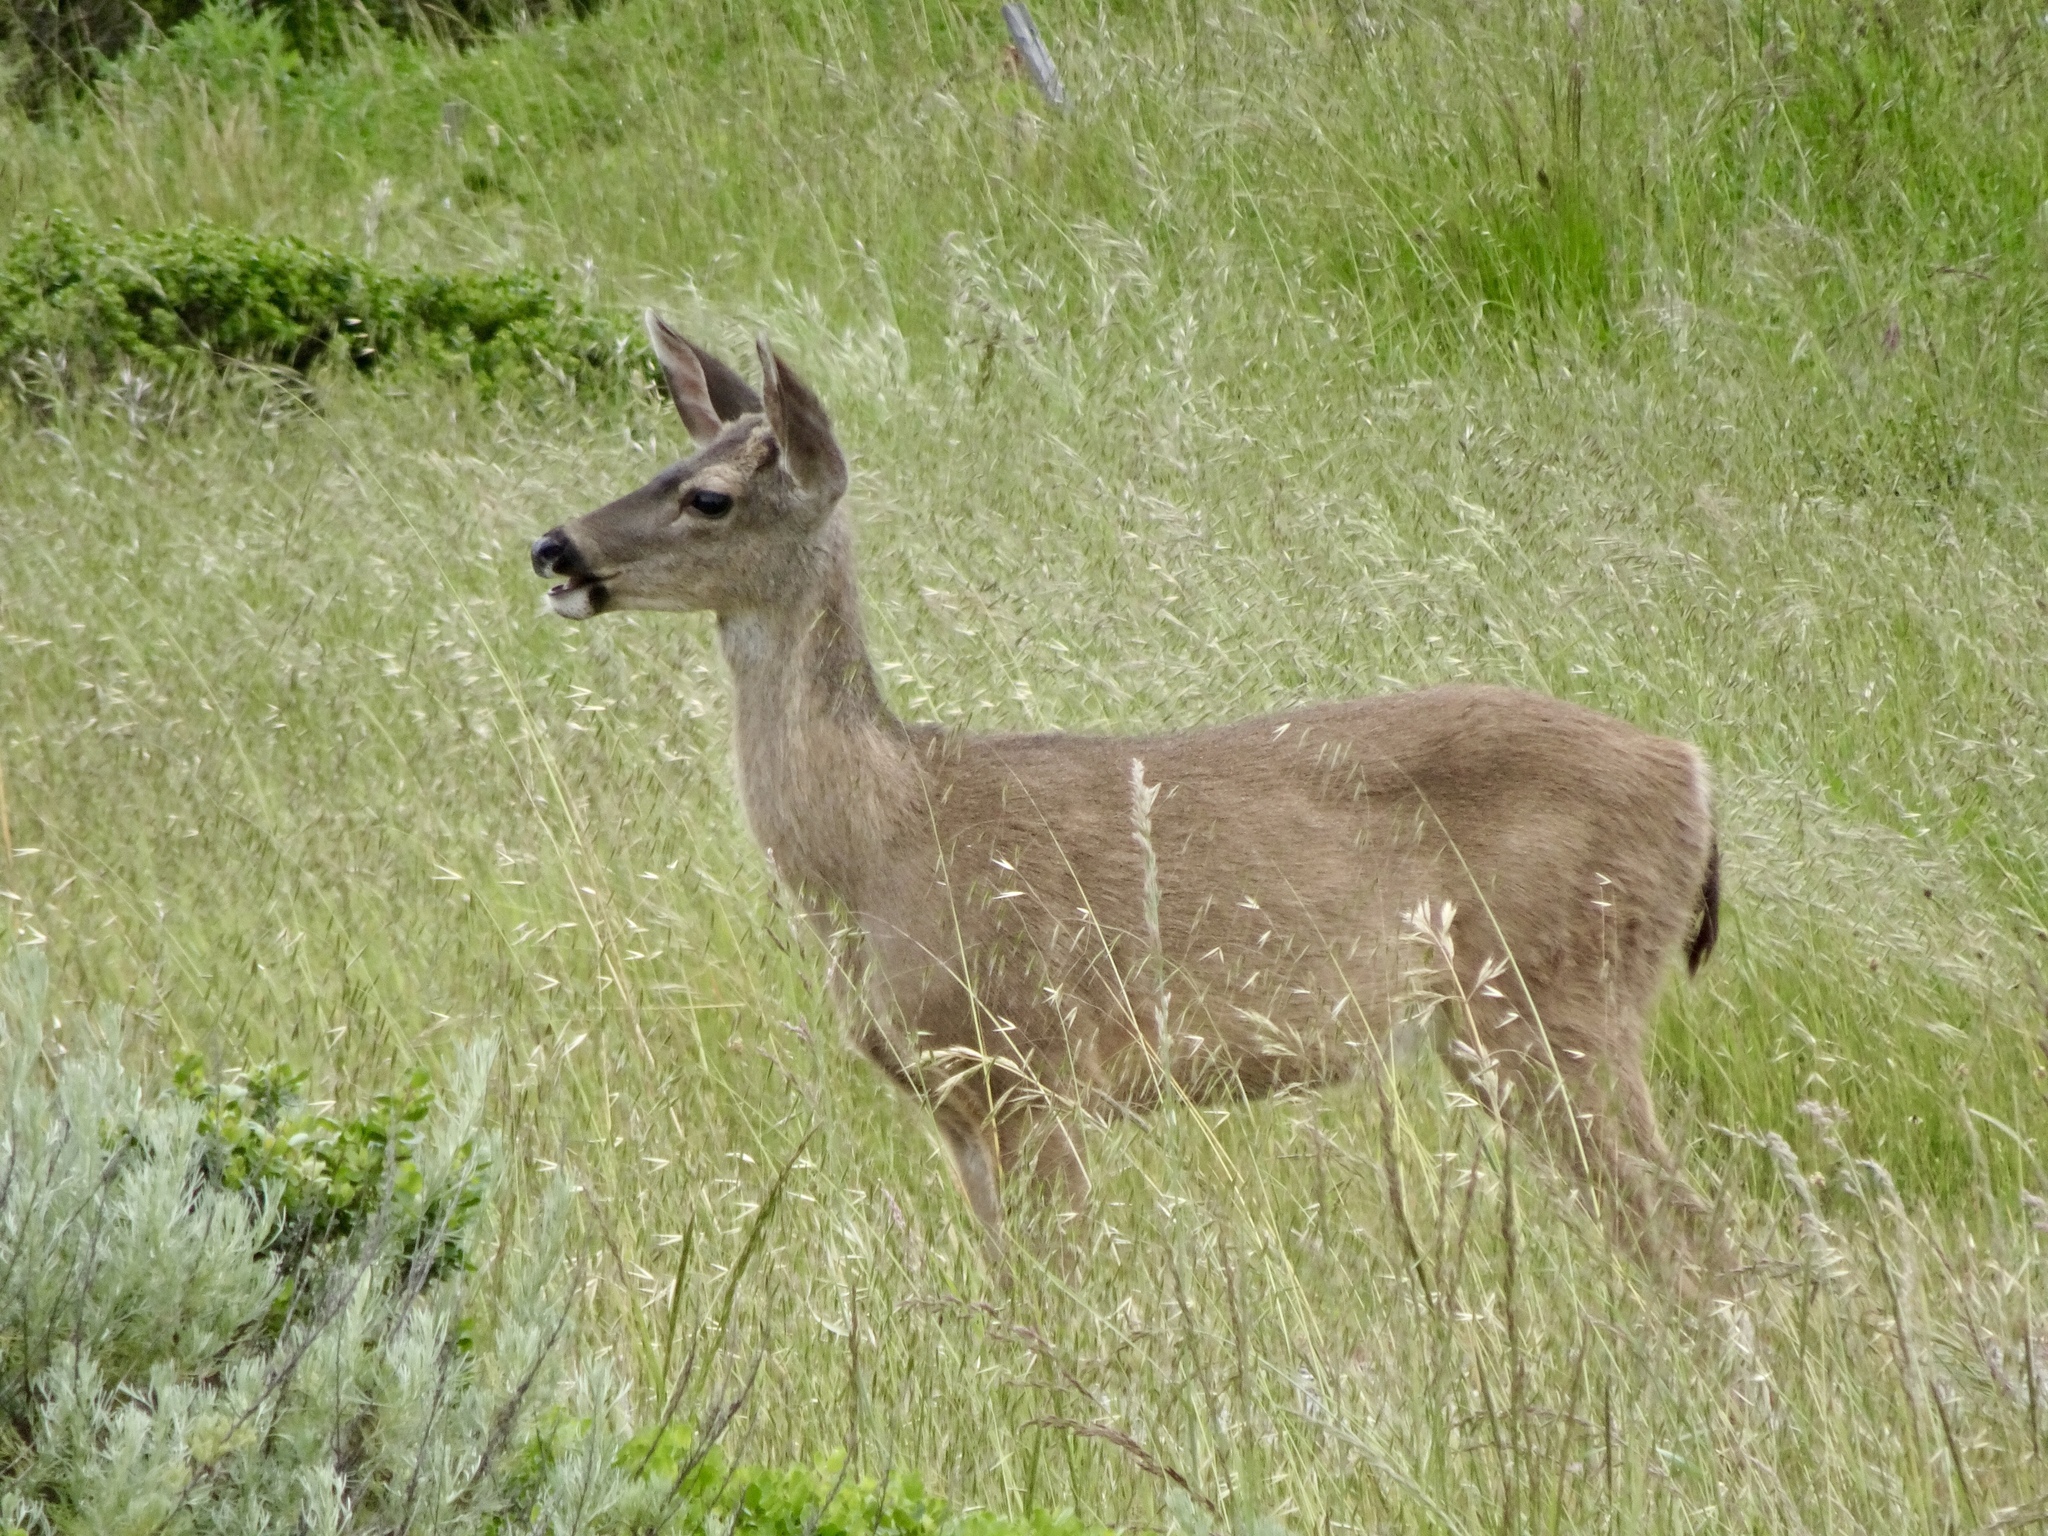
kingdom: Animalia
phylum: Chordata
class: Mammalia
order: Artiodactyla
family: Cervidae
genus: Odocoileus
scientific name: Odocoileus hemionus
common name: Mule deer
